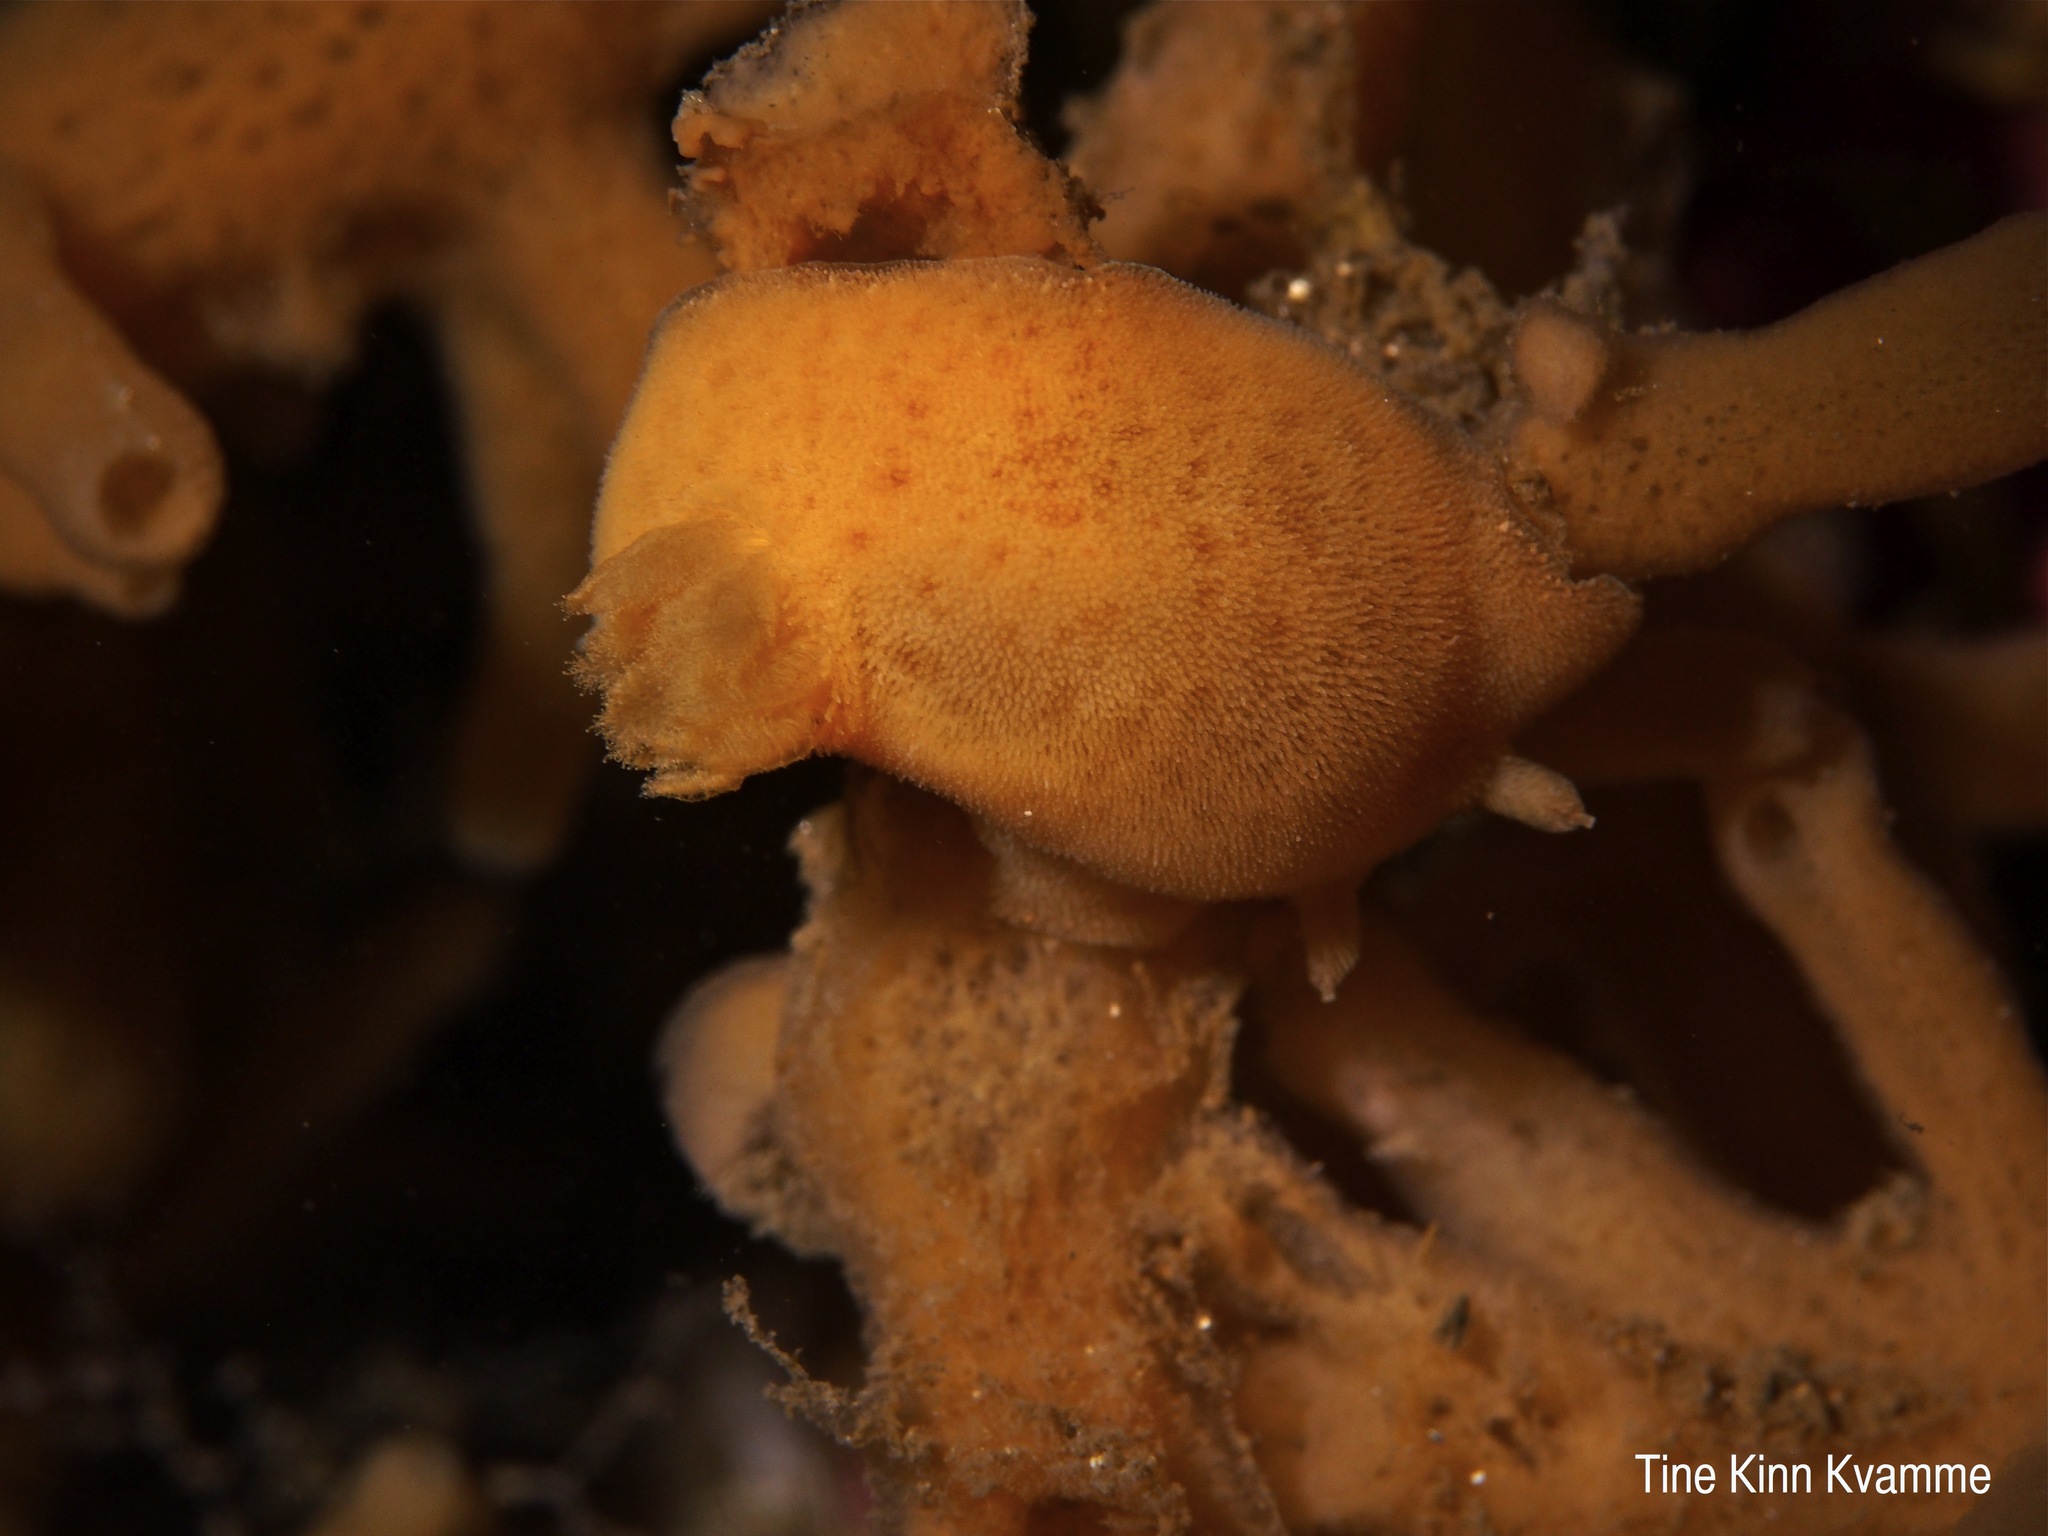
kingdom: Animalia
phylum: Mollusca
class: Gastropoda
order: Nudibranchia
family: Discodorididae
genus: Jorunna
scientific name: Jorunna tomentosa
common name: Grey sea slug
